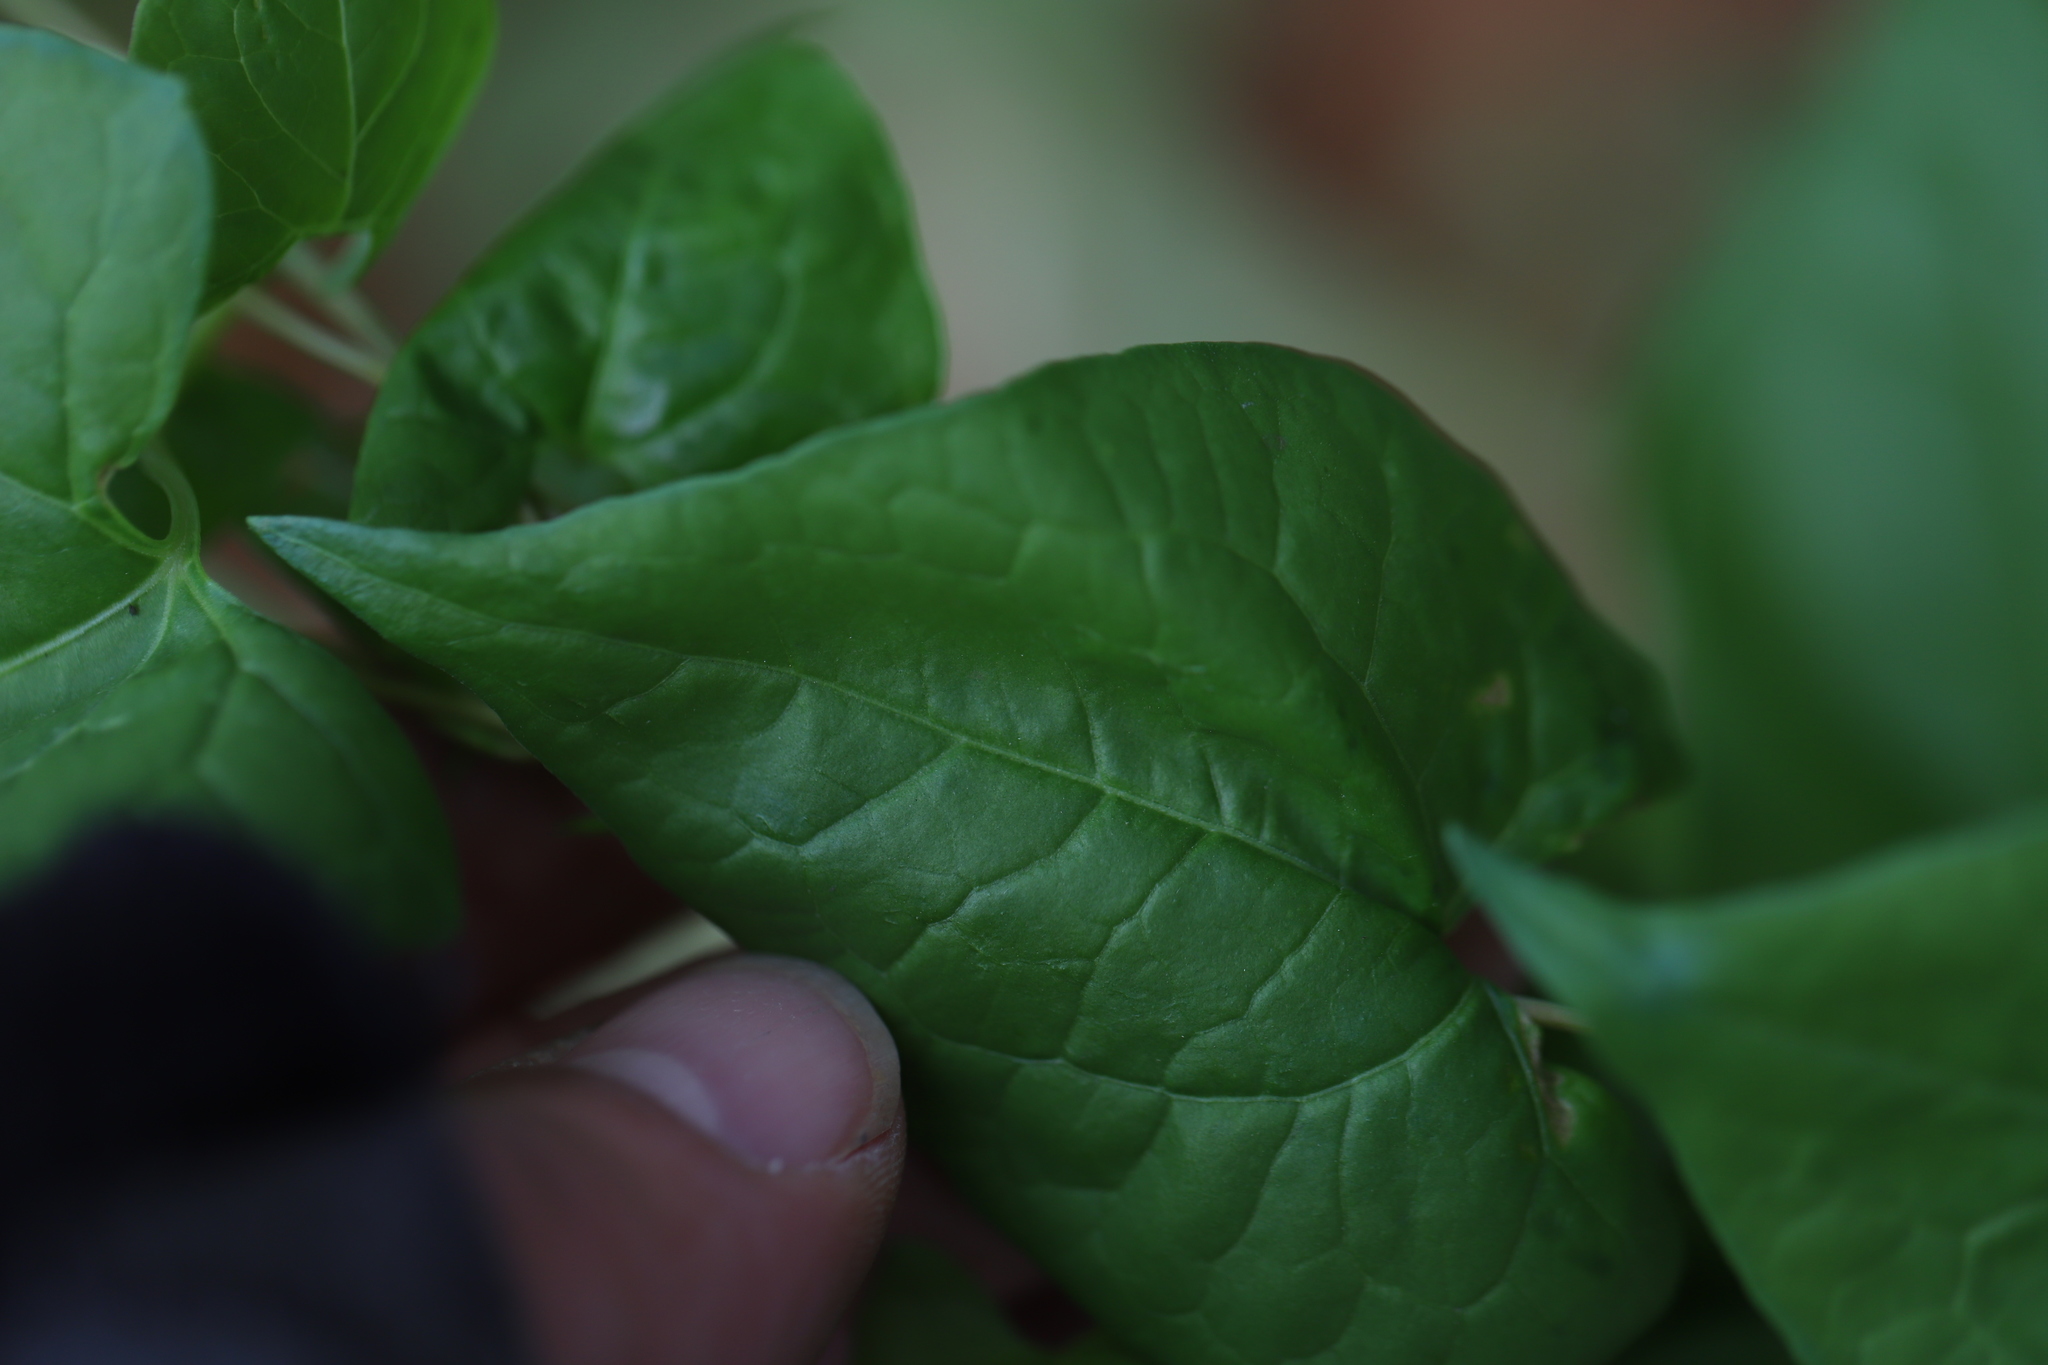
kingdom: Plantae
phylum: Tracheophyta
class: Magnoliopsida
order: Caryophyllales
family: Polygonaceae
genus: Fallopia
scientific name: Fallopia convolvulus
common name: Black bindweed
